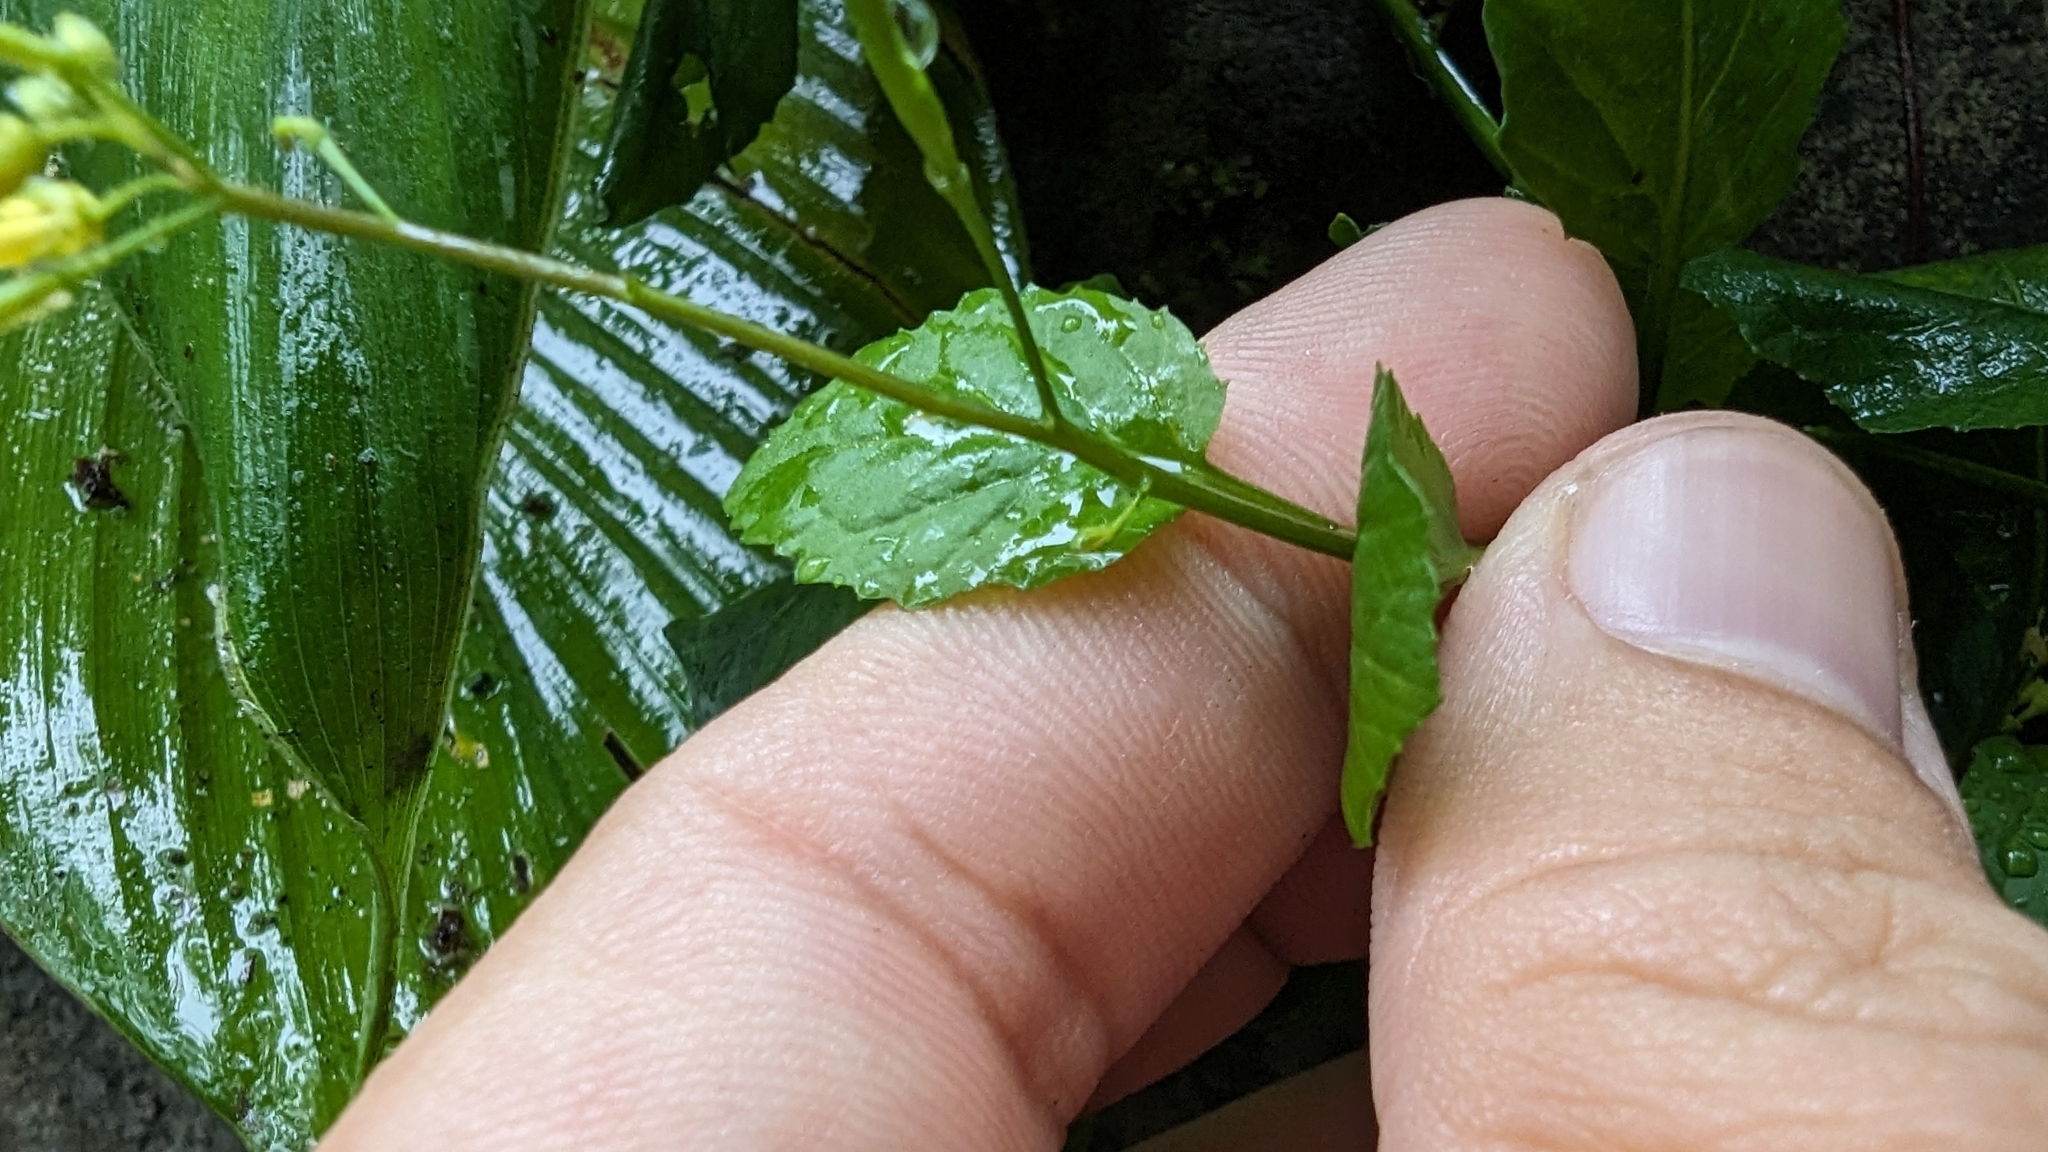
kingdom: Plantae
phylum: Tracheophyta
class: Magnoliopsida
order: Brassicales
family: Brassicaceae
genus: Rorippa
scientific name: Rorippa indica
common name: Variableleaf yellowcress
